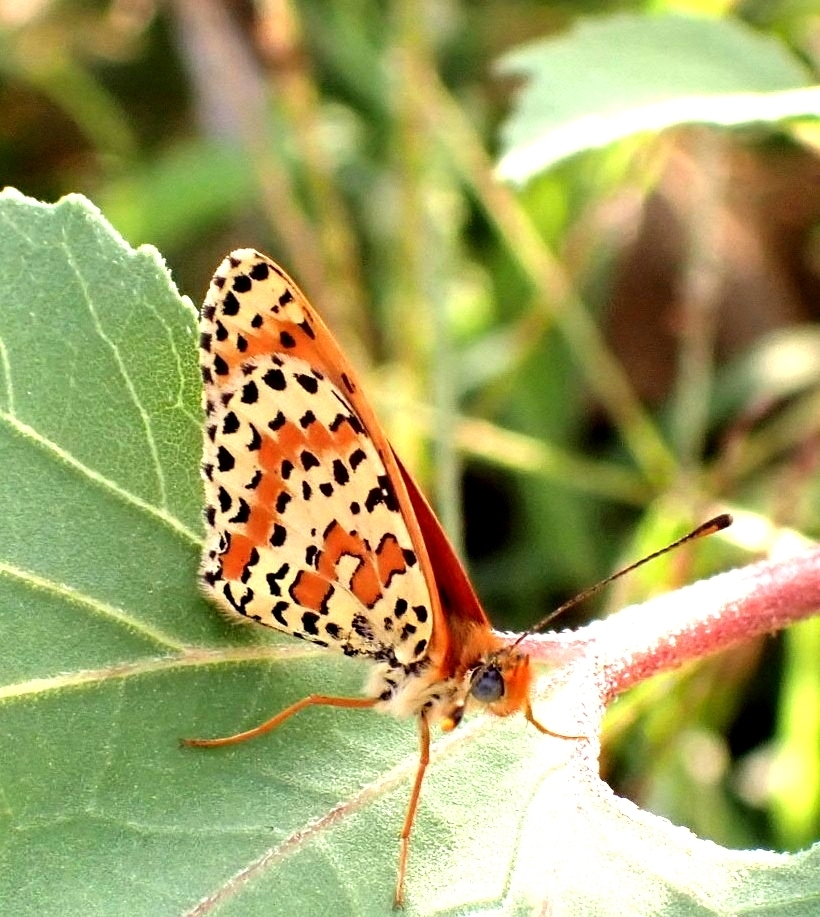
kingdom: Animalia
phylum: Arthropoda
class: Insecta
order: Lepidoptera
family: Nymphalidae
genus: Melitaea
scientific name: Melitaea didyma
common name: Spotted fritillary
